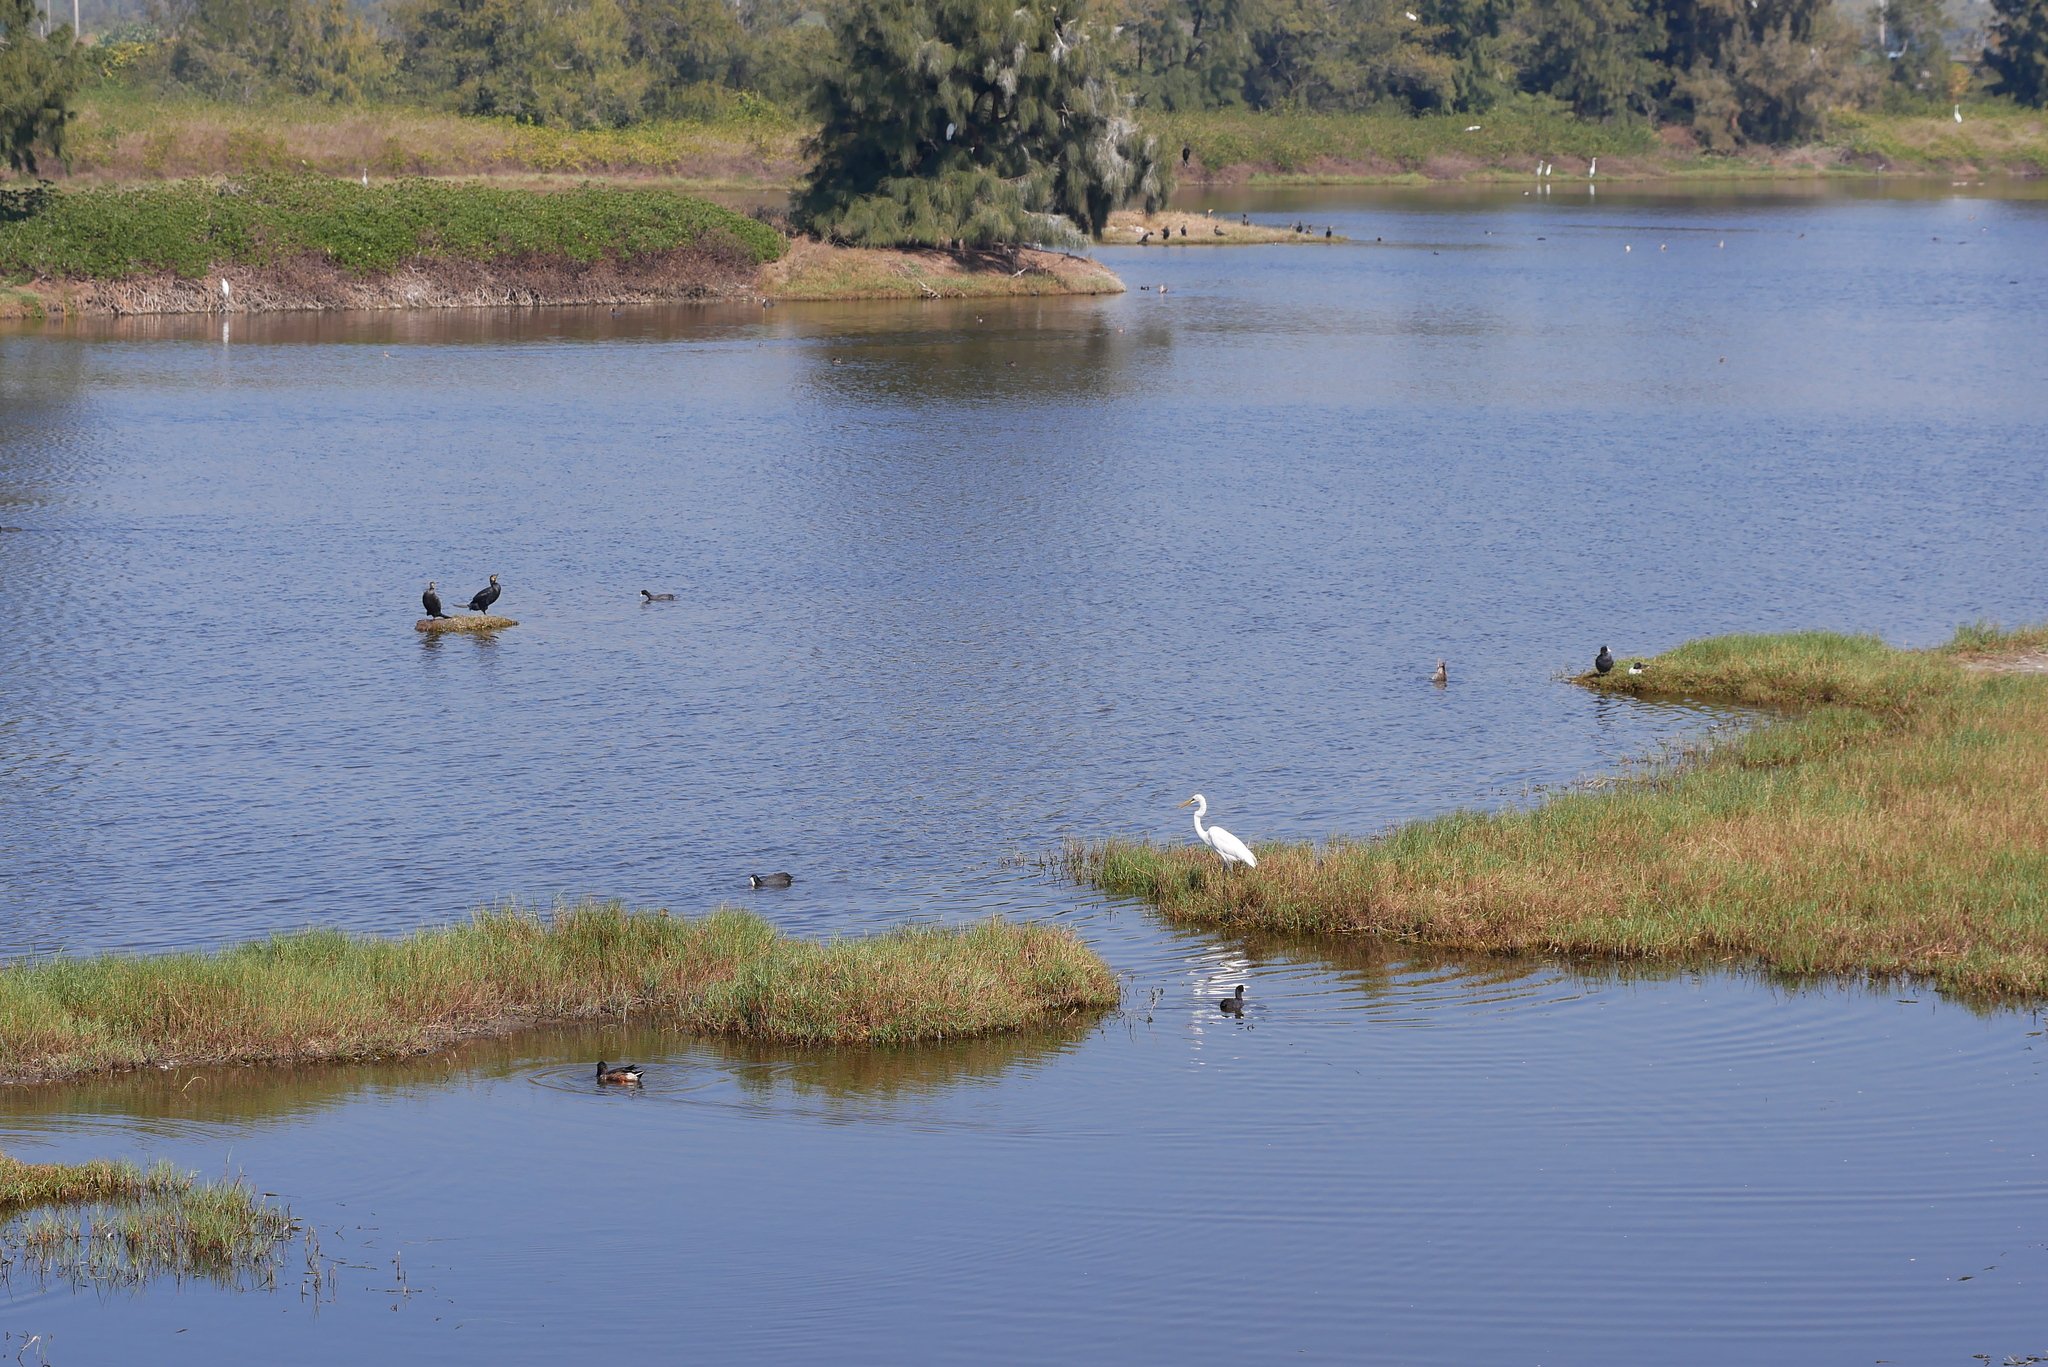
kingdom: Animalia
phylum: Chordata
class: Aves
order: Pelecaniformes
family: Ardeidae
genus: Ardea
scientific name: Ardea alba
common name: Great egret
